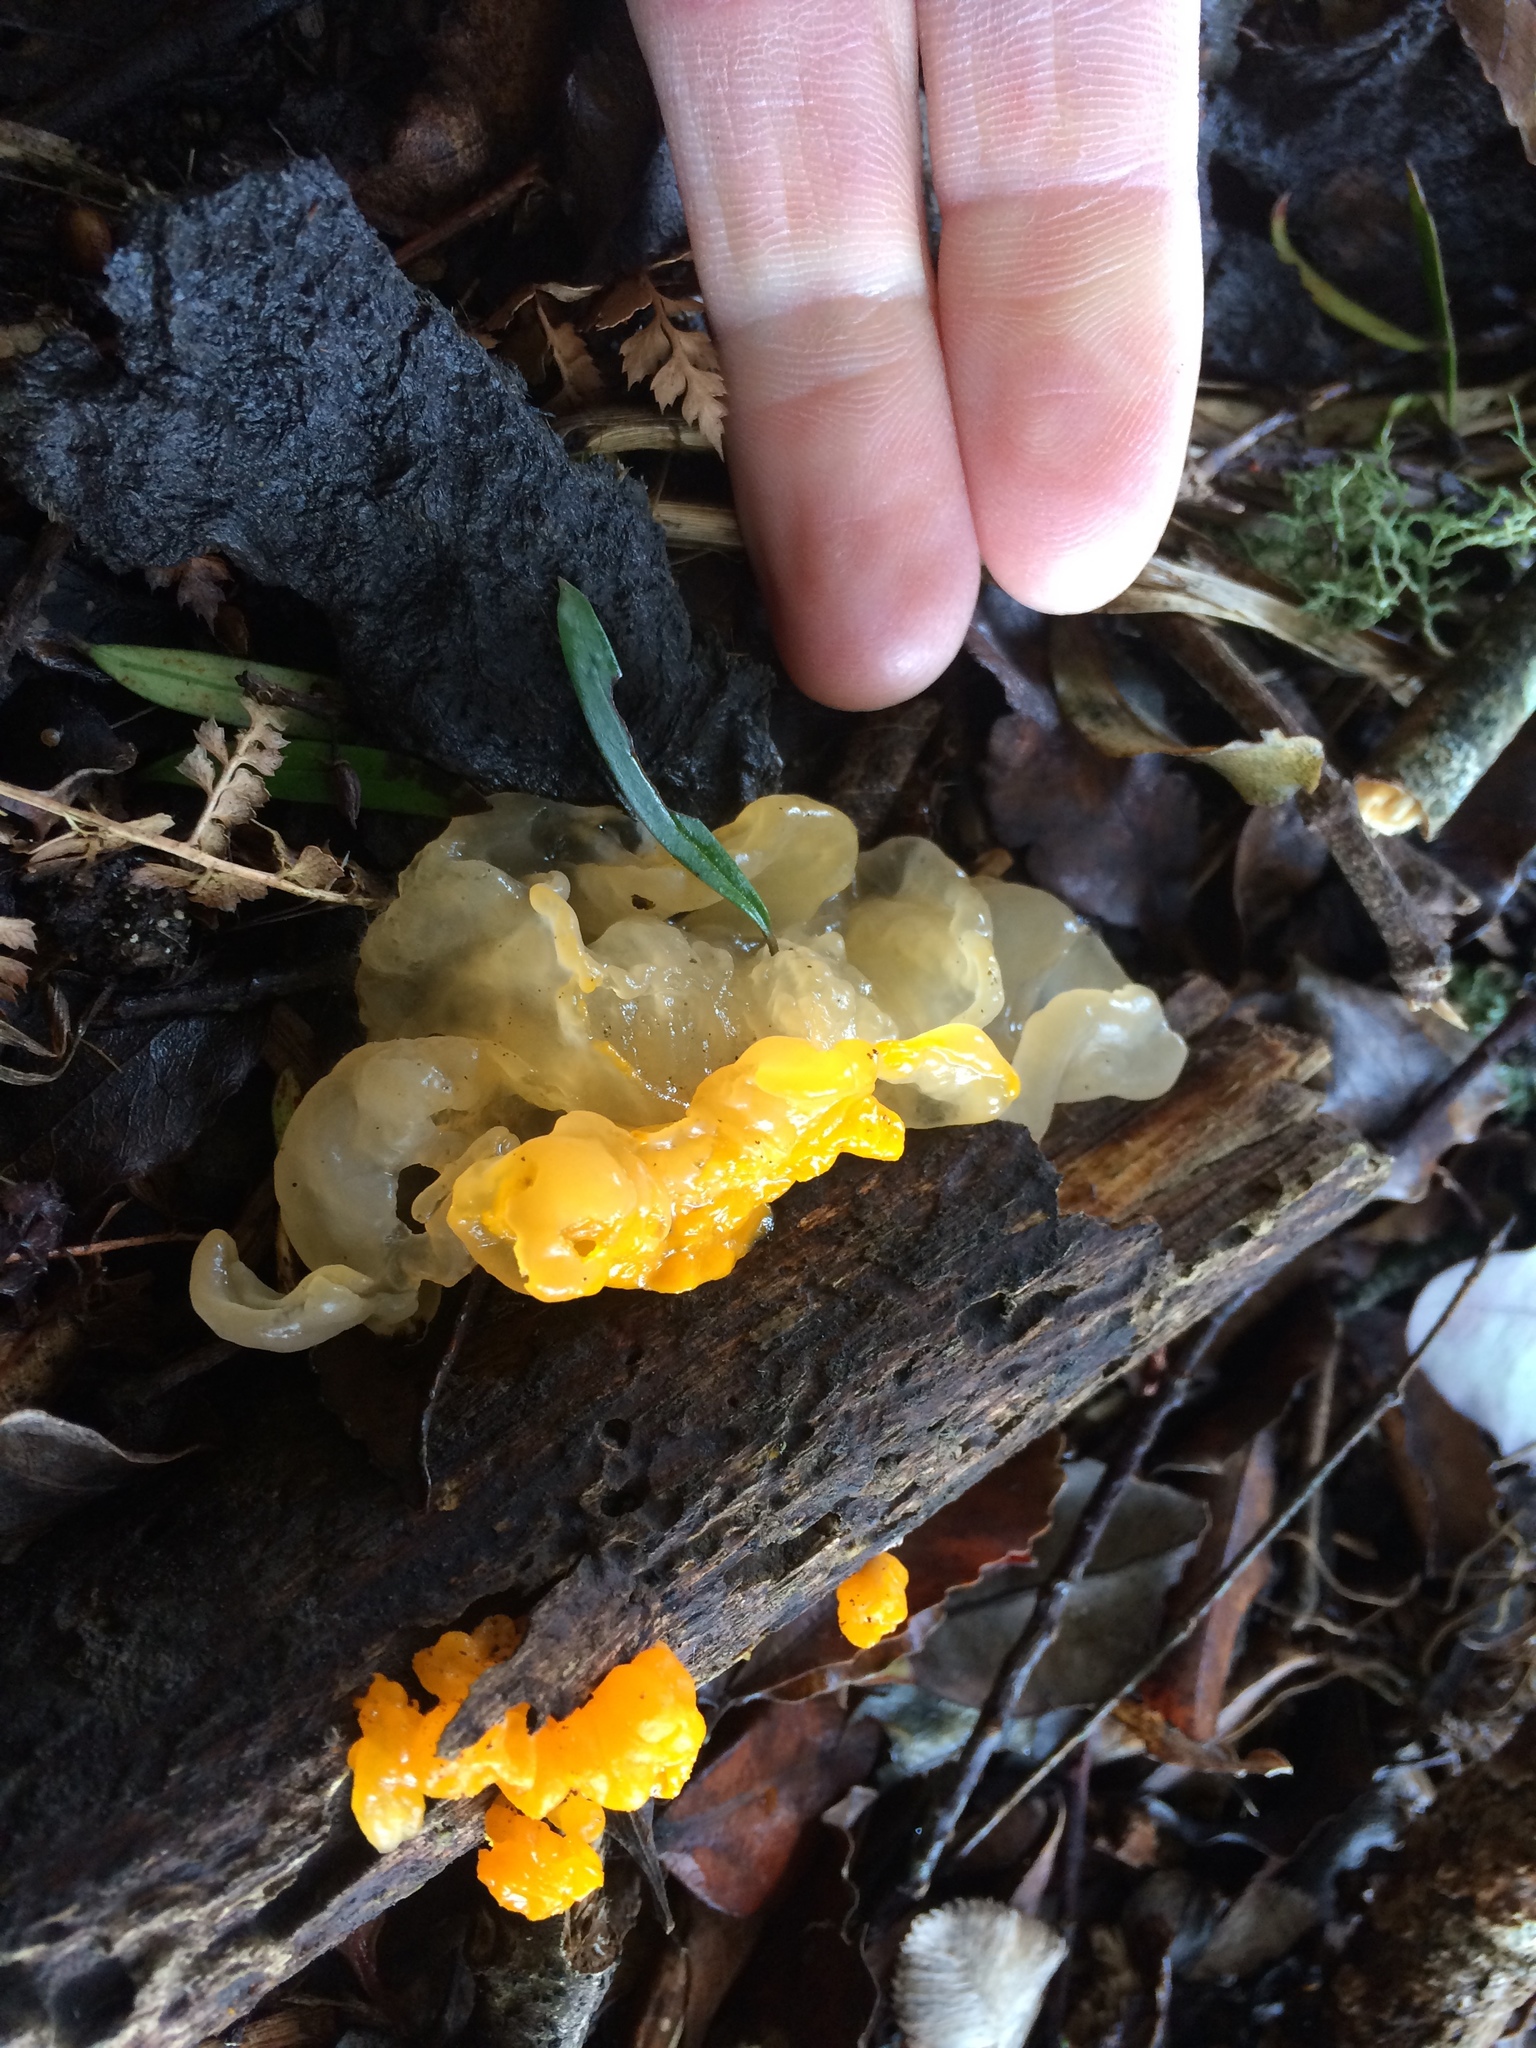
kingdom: Fungi
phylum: Basidiomycota
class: Tremellomycetes
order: Tremellales
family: Tremellaceae
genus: Tremella
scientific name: Tremella mesenterica
